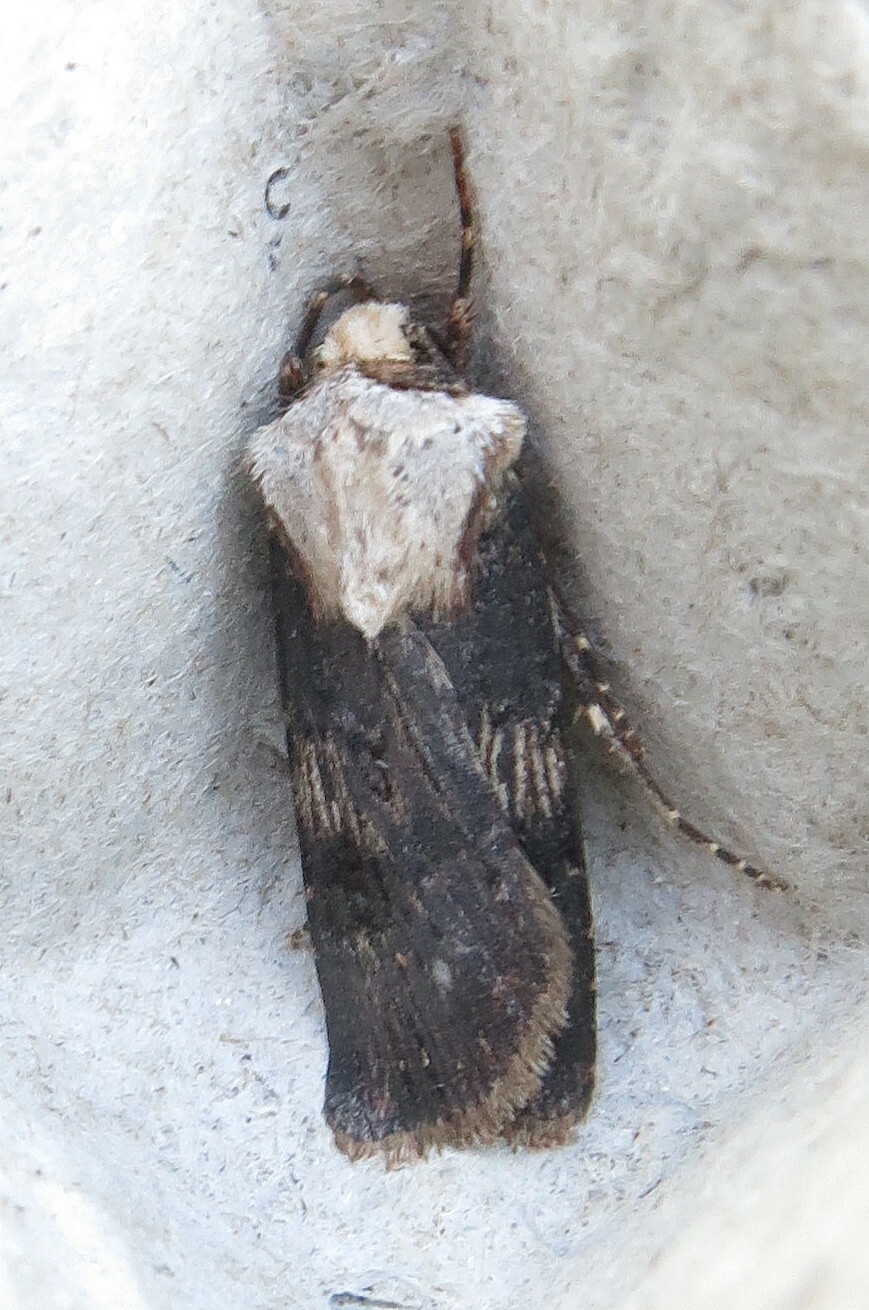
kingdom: Animalia
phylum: Arthropoda
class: Insecta
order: Lepidoptera
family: Noctuidae
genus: Agrotis
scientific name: Agrotis puta
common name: Shuttle-shaped dart
